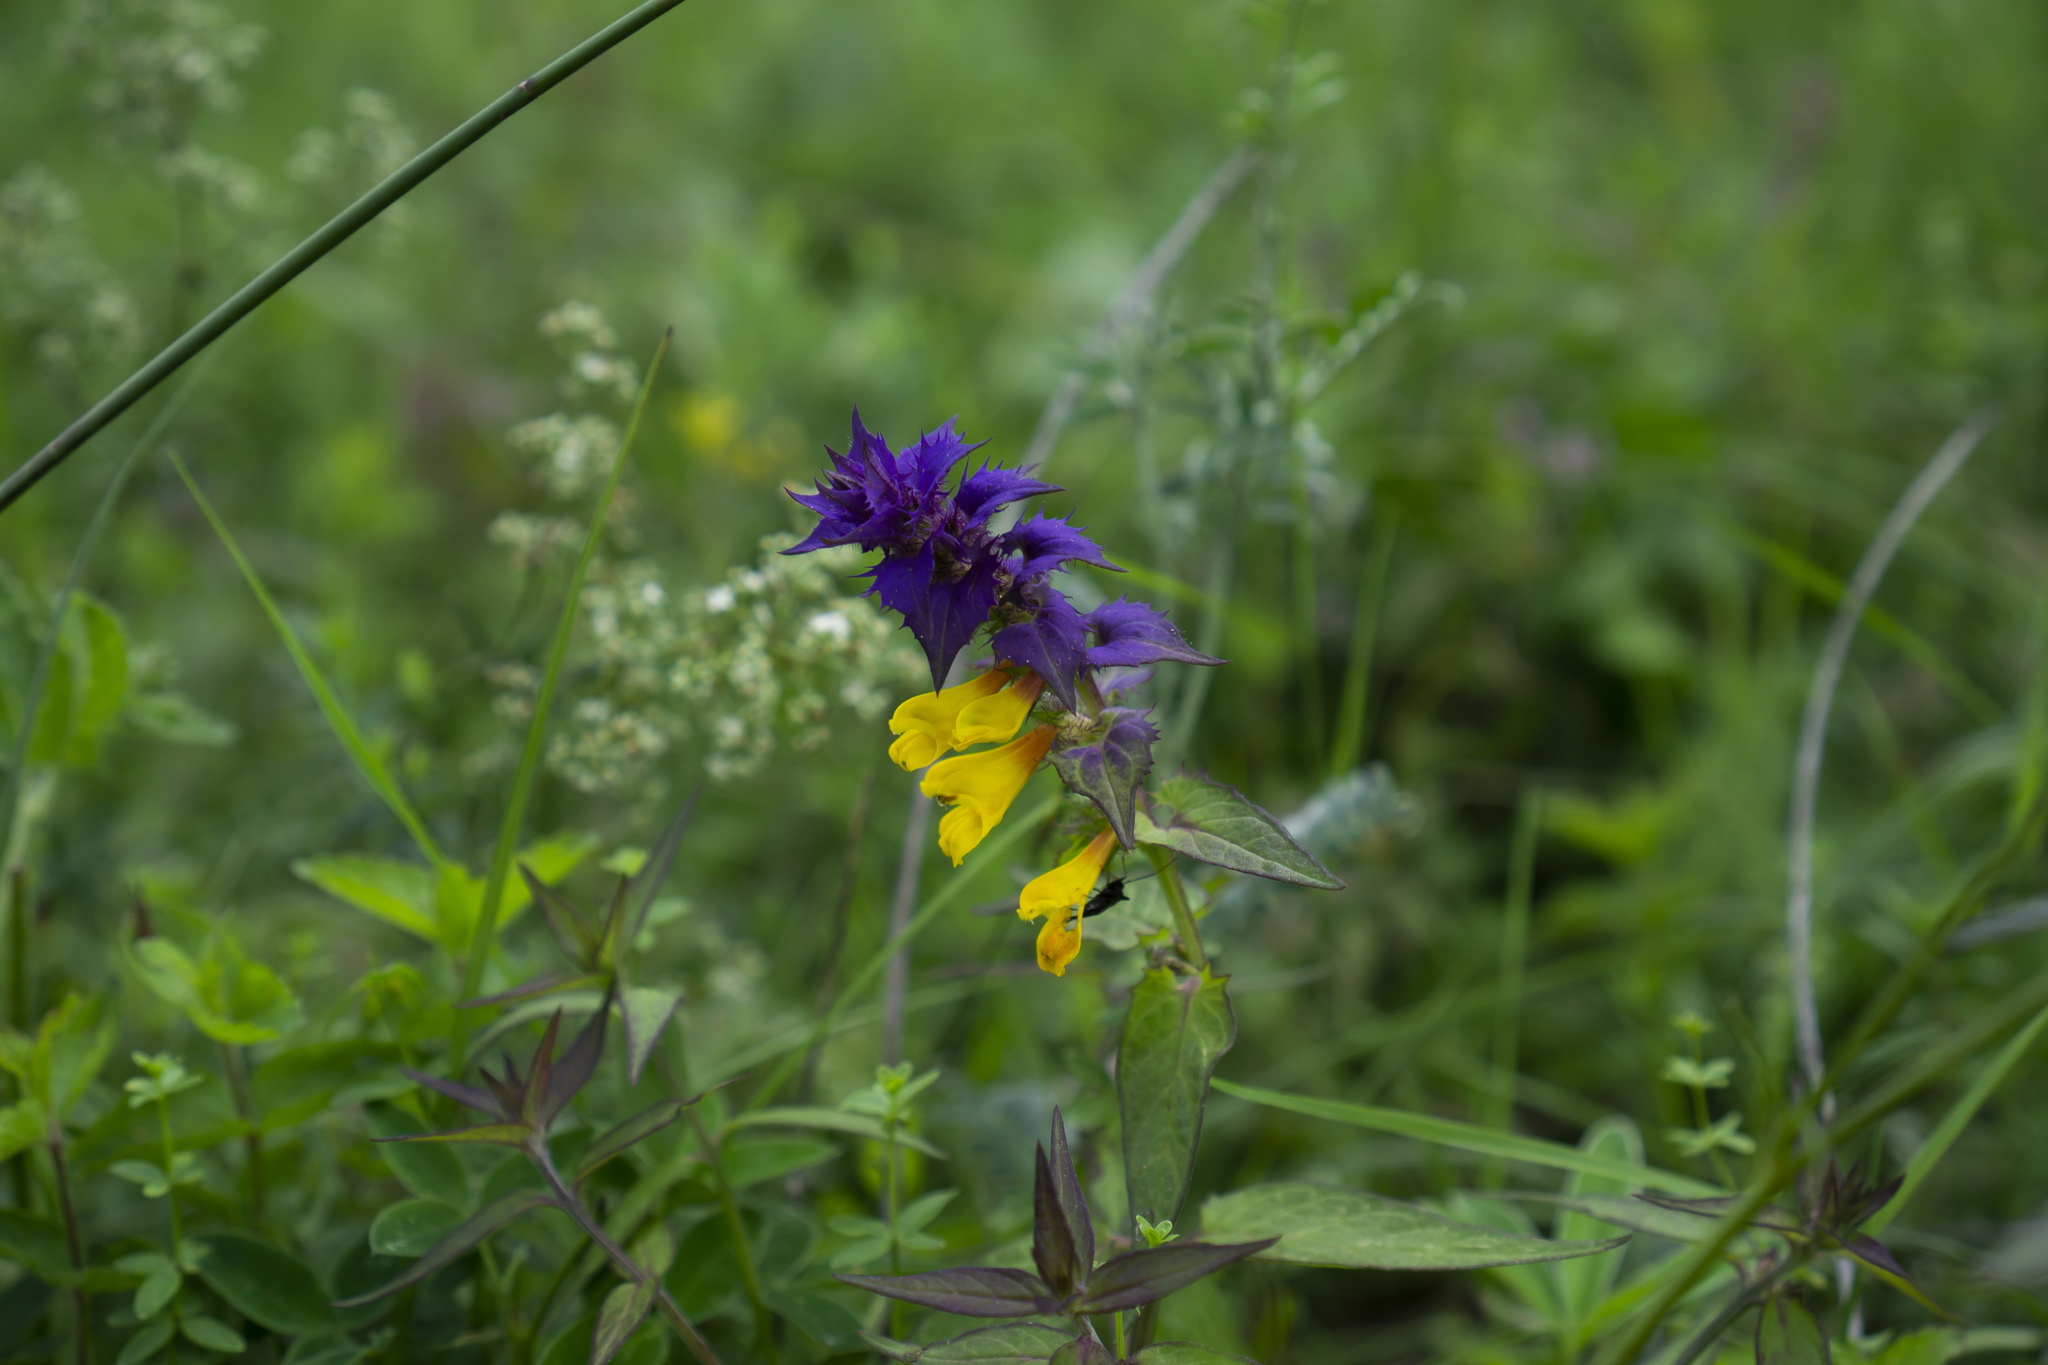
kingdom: Plantae
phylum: Tracheophyta
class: Magnoliopsida
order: Lamiales
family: Orobanchaceae
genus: Melampyrum
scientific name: Melampyrum nemorosum
